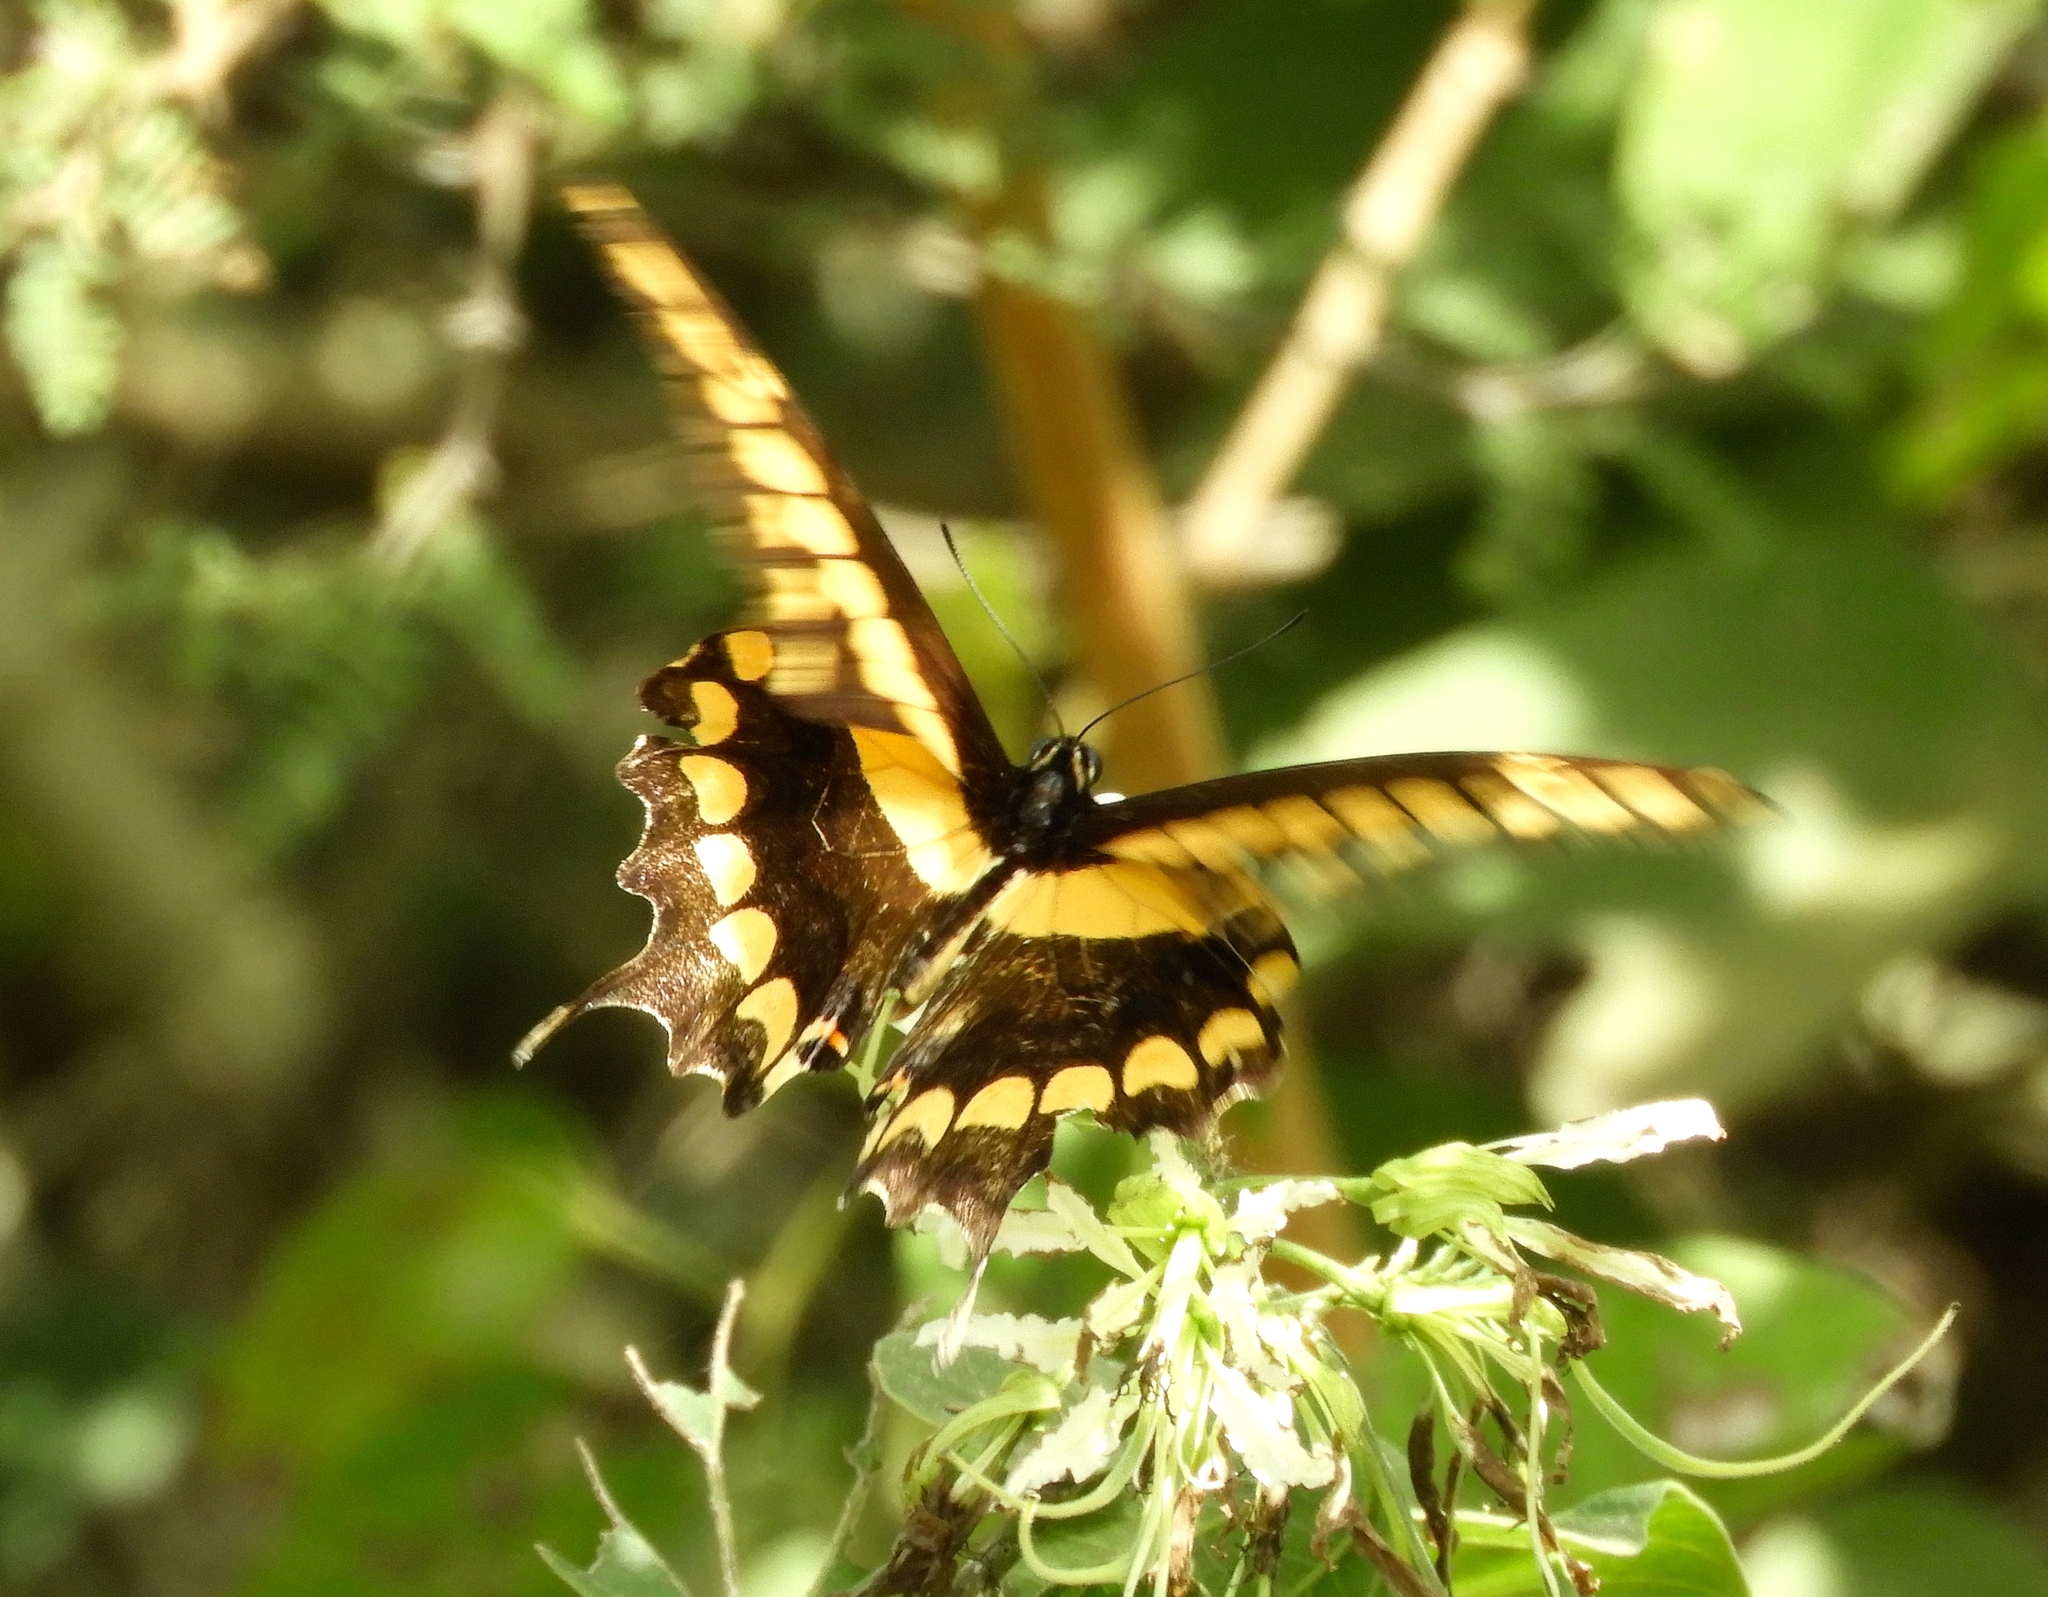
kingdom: Animalia
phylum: Arthropoda
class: Insecta
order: Lepidoptera
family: Papilionidae
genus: Papilio
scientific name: Papilio rumiko
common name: Western giant swallowtail
